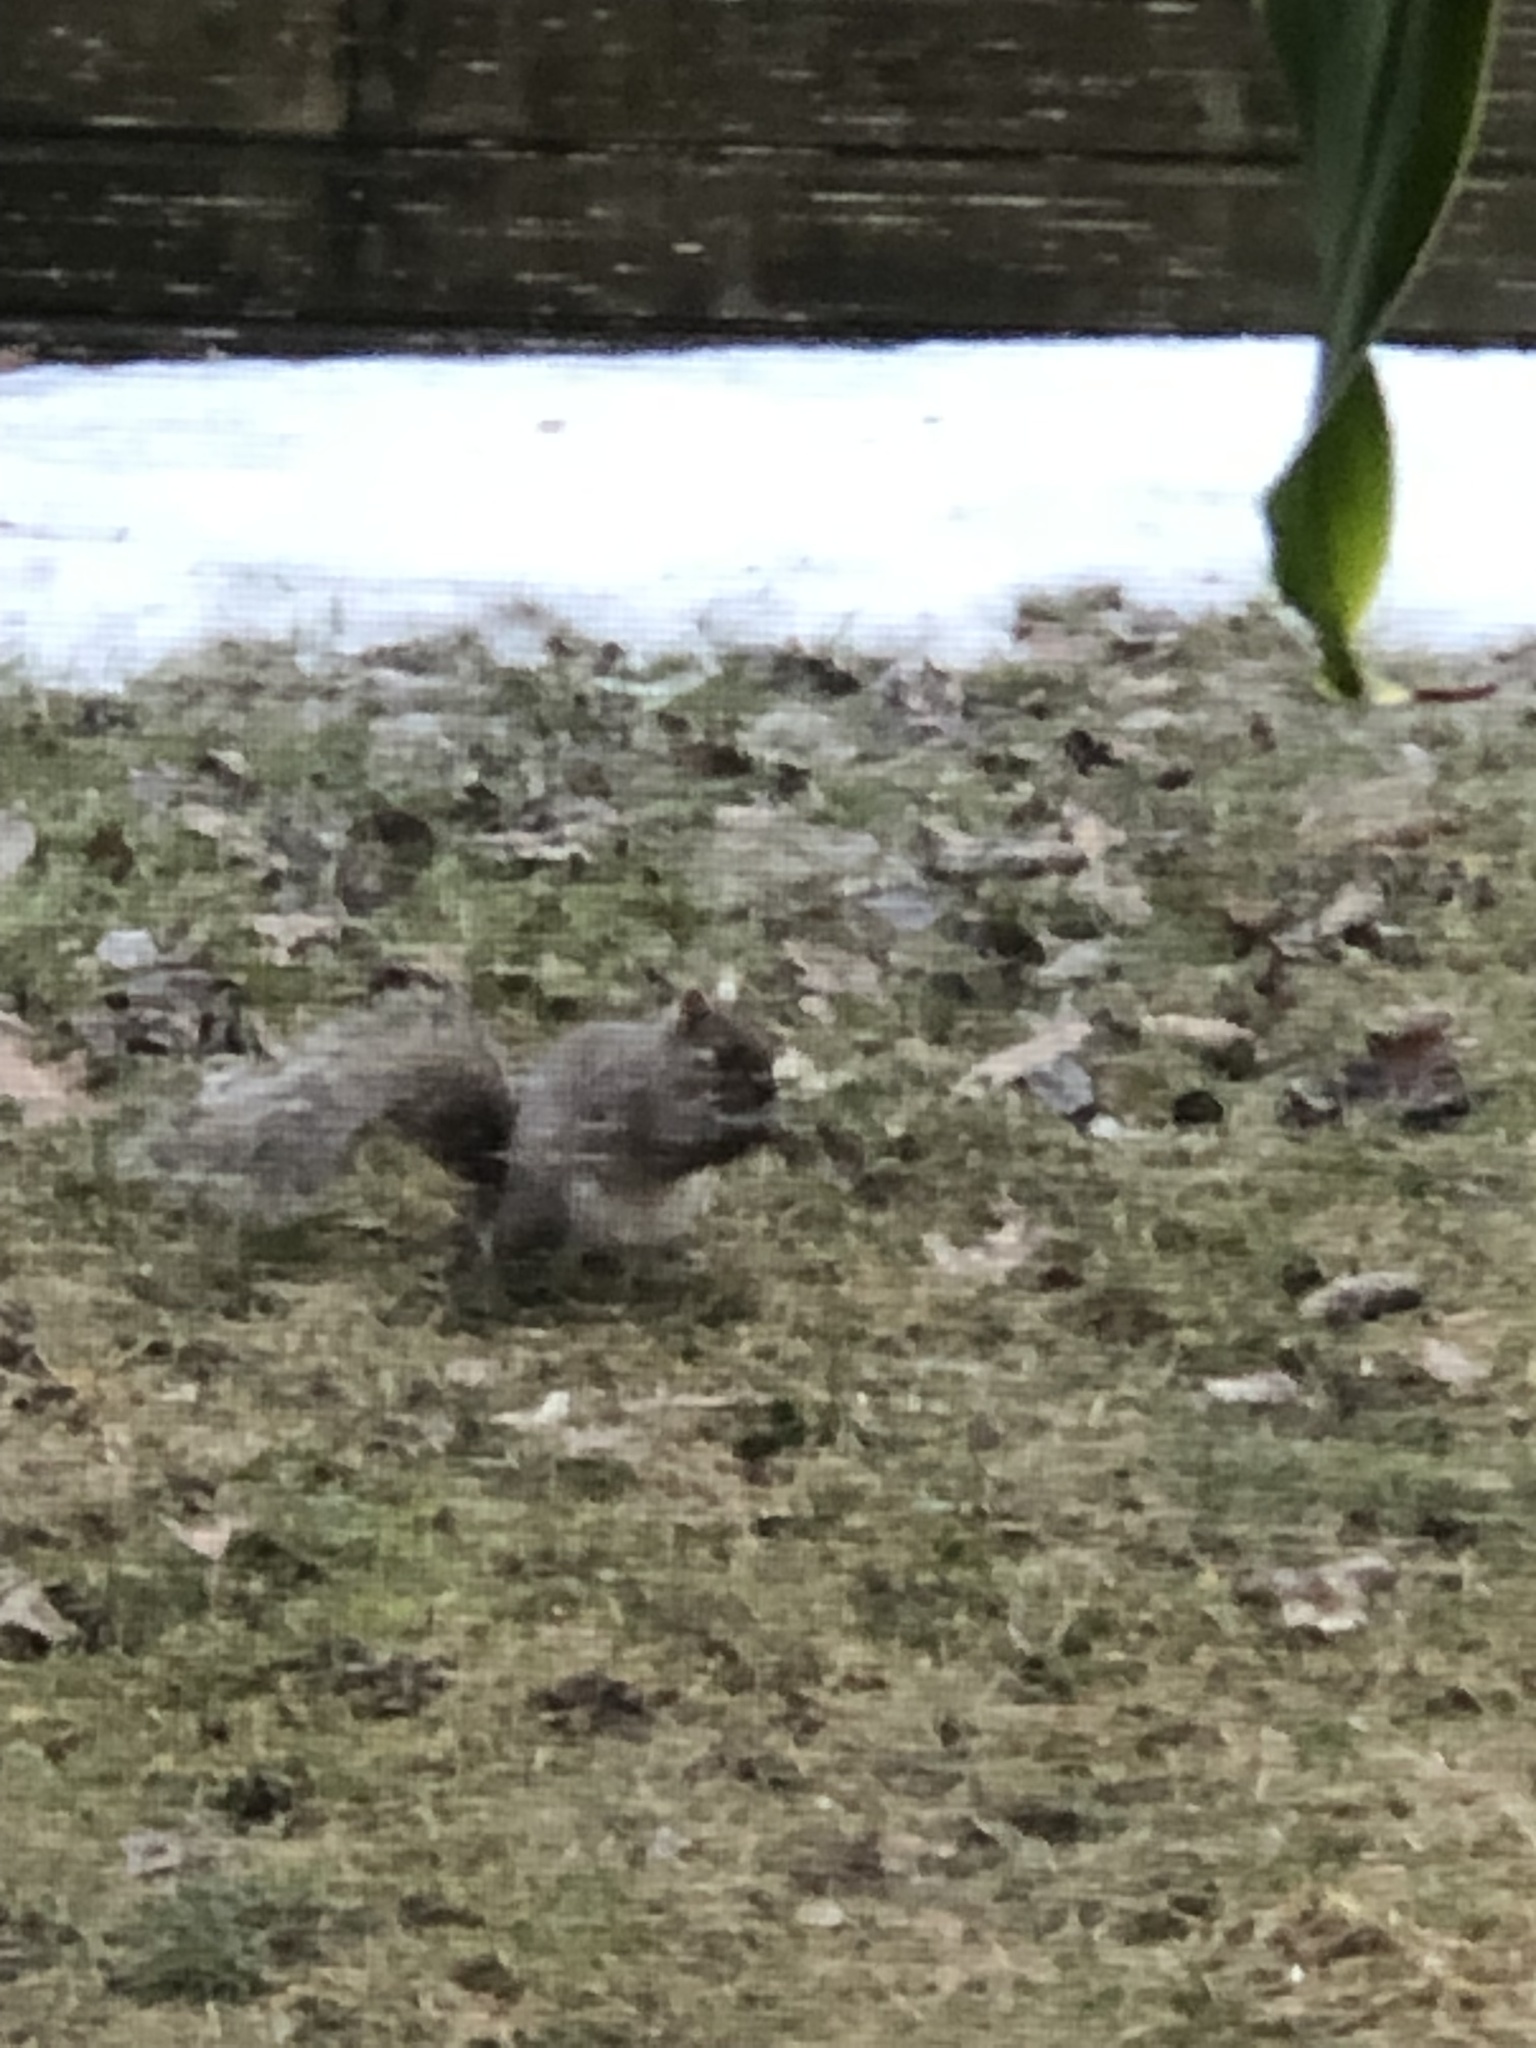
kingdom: Animalia
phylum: Chordata
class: Mammalia
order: Rodentia
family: Sciuridae
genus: Sciurus
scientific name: Sciurus carolinensis
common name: Eastern gray squirrel
